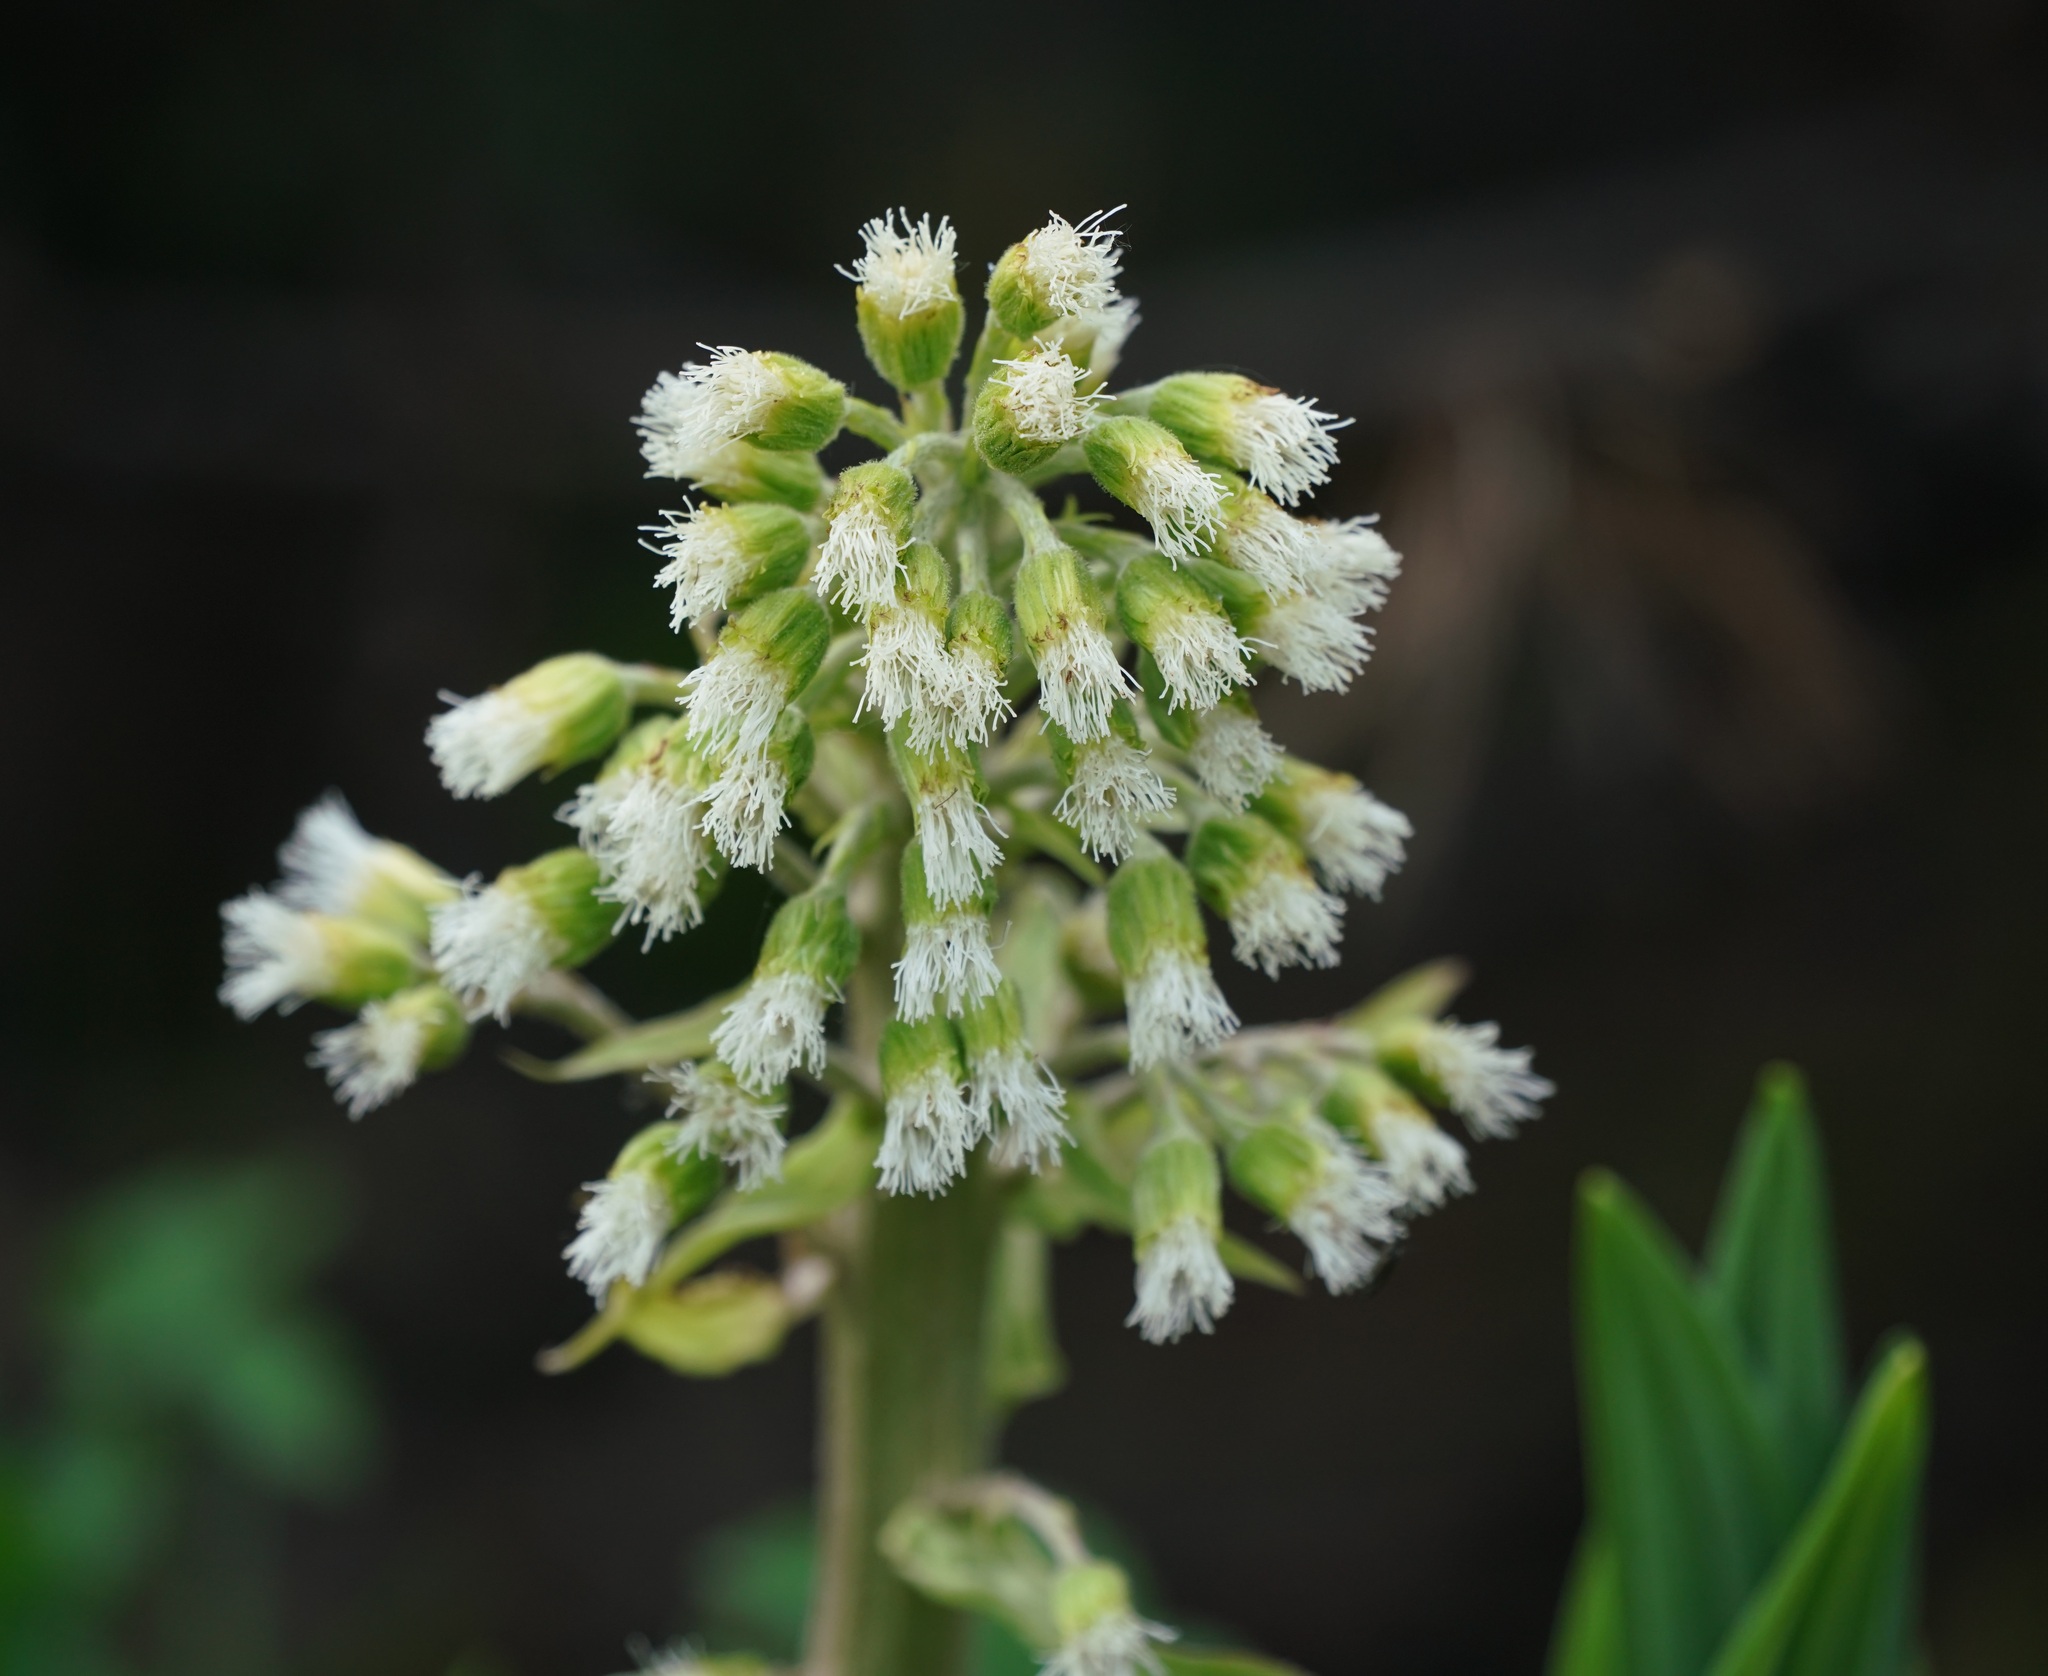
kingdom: Plantae
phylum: Tracheophyta
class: Magnoliopsida
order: Asterales
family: Asteraceae
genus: Petasites
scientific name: Petasites albus
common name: White butterbur
